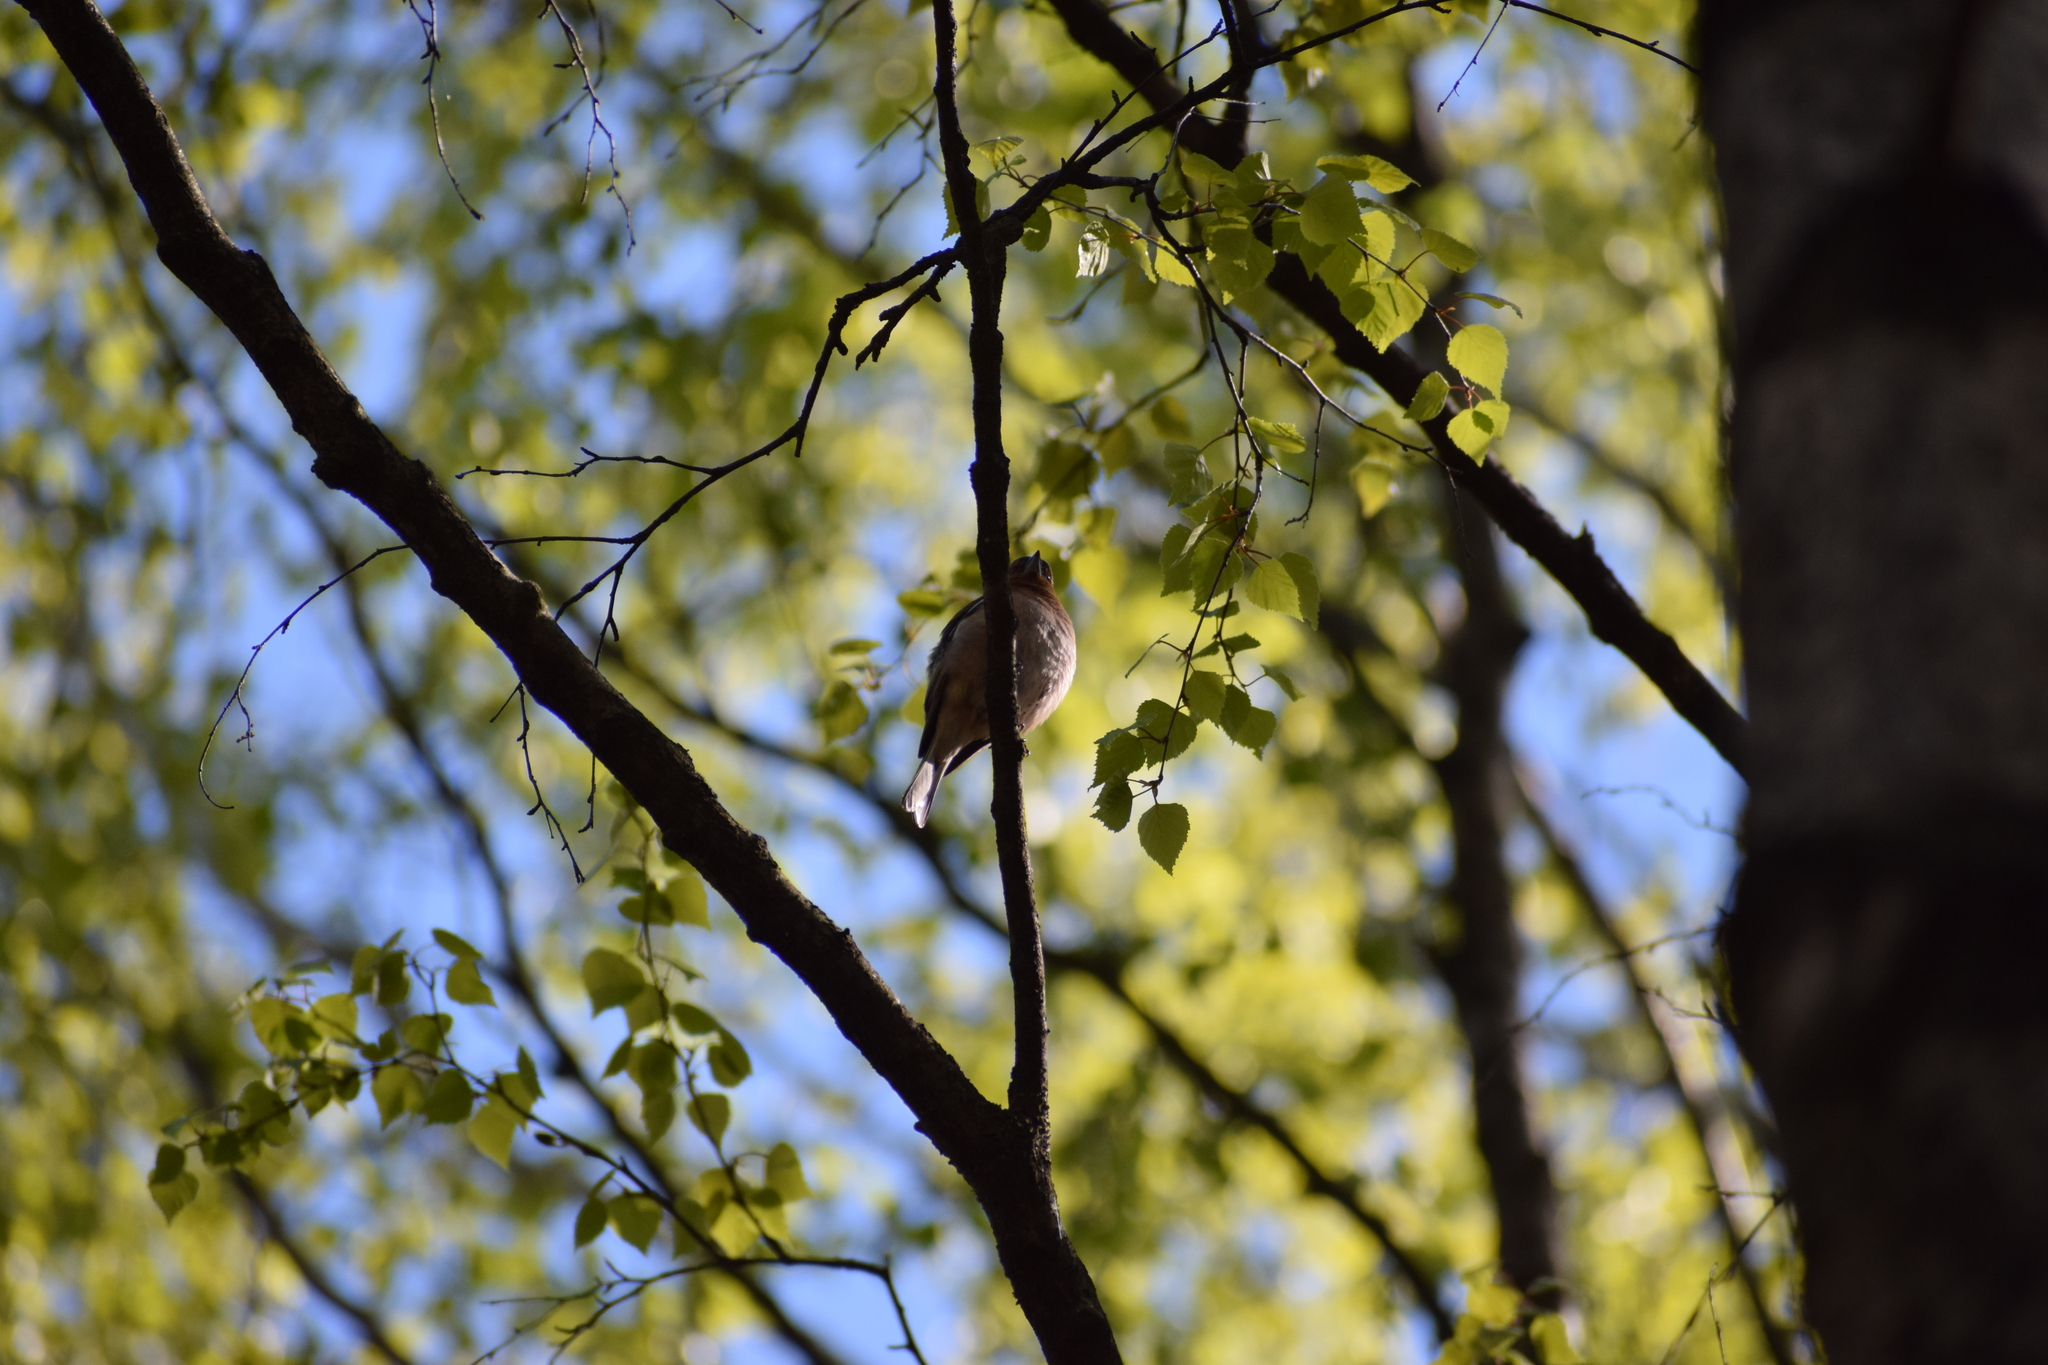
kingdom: Animalia
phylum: Chordata
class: Aves
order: Passeriformes
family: Fringillidae
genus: Fringilla
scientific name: Fringilla coelebs
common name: Common chaffinch
